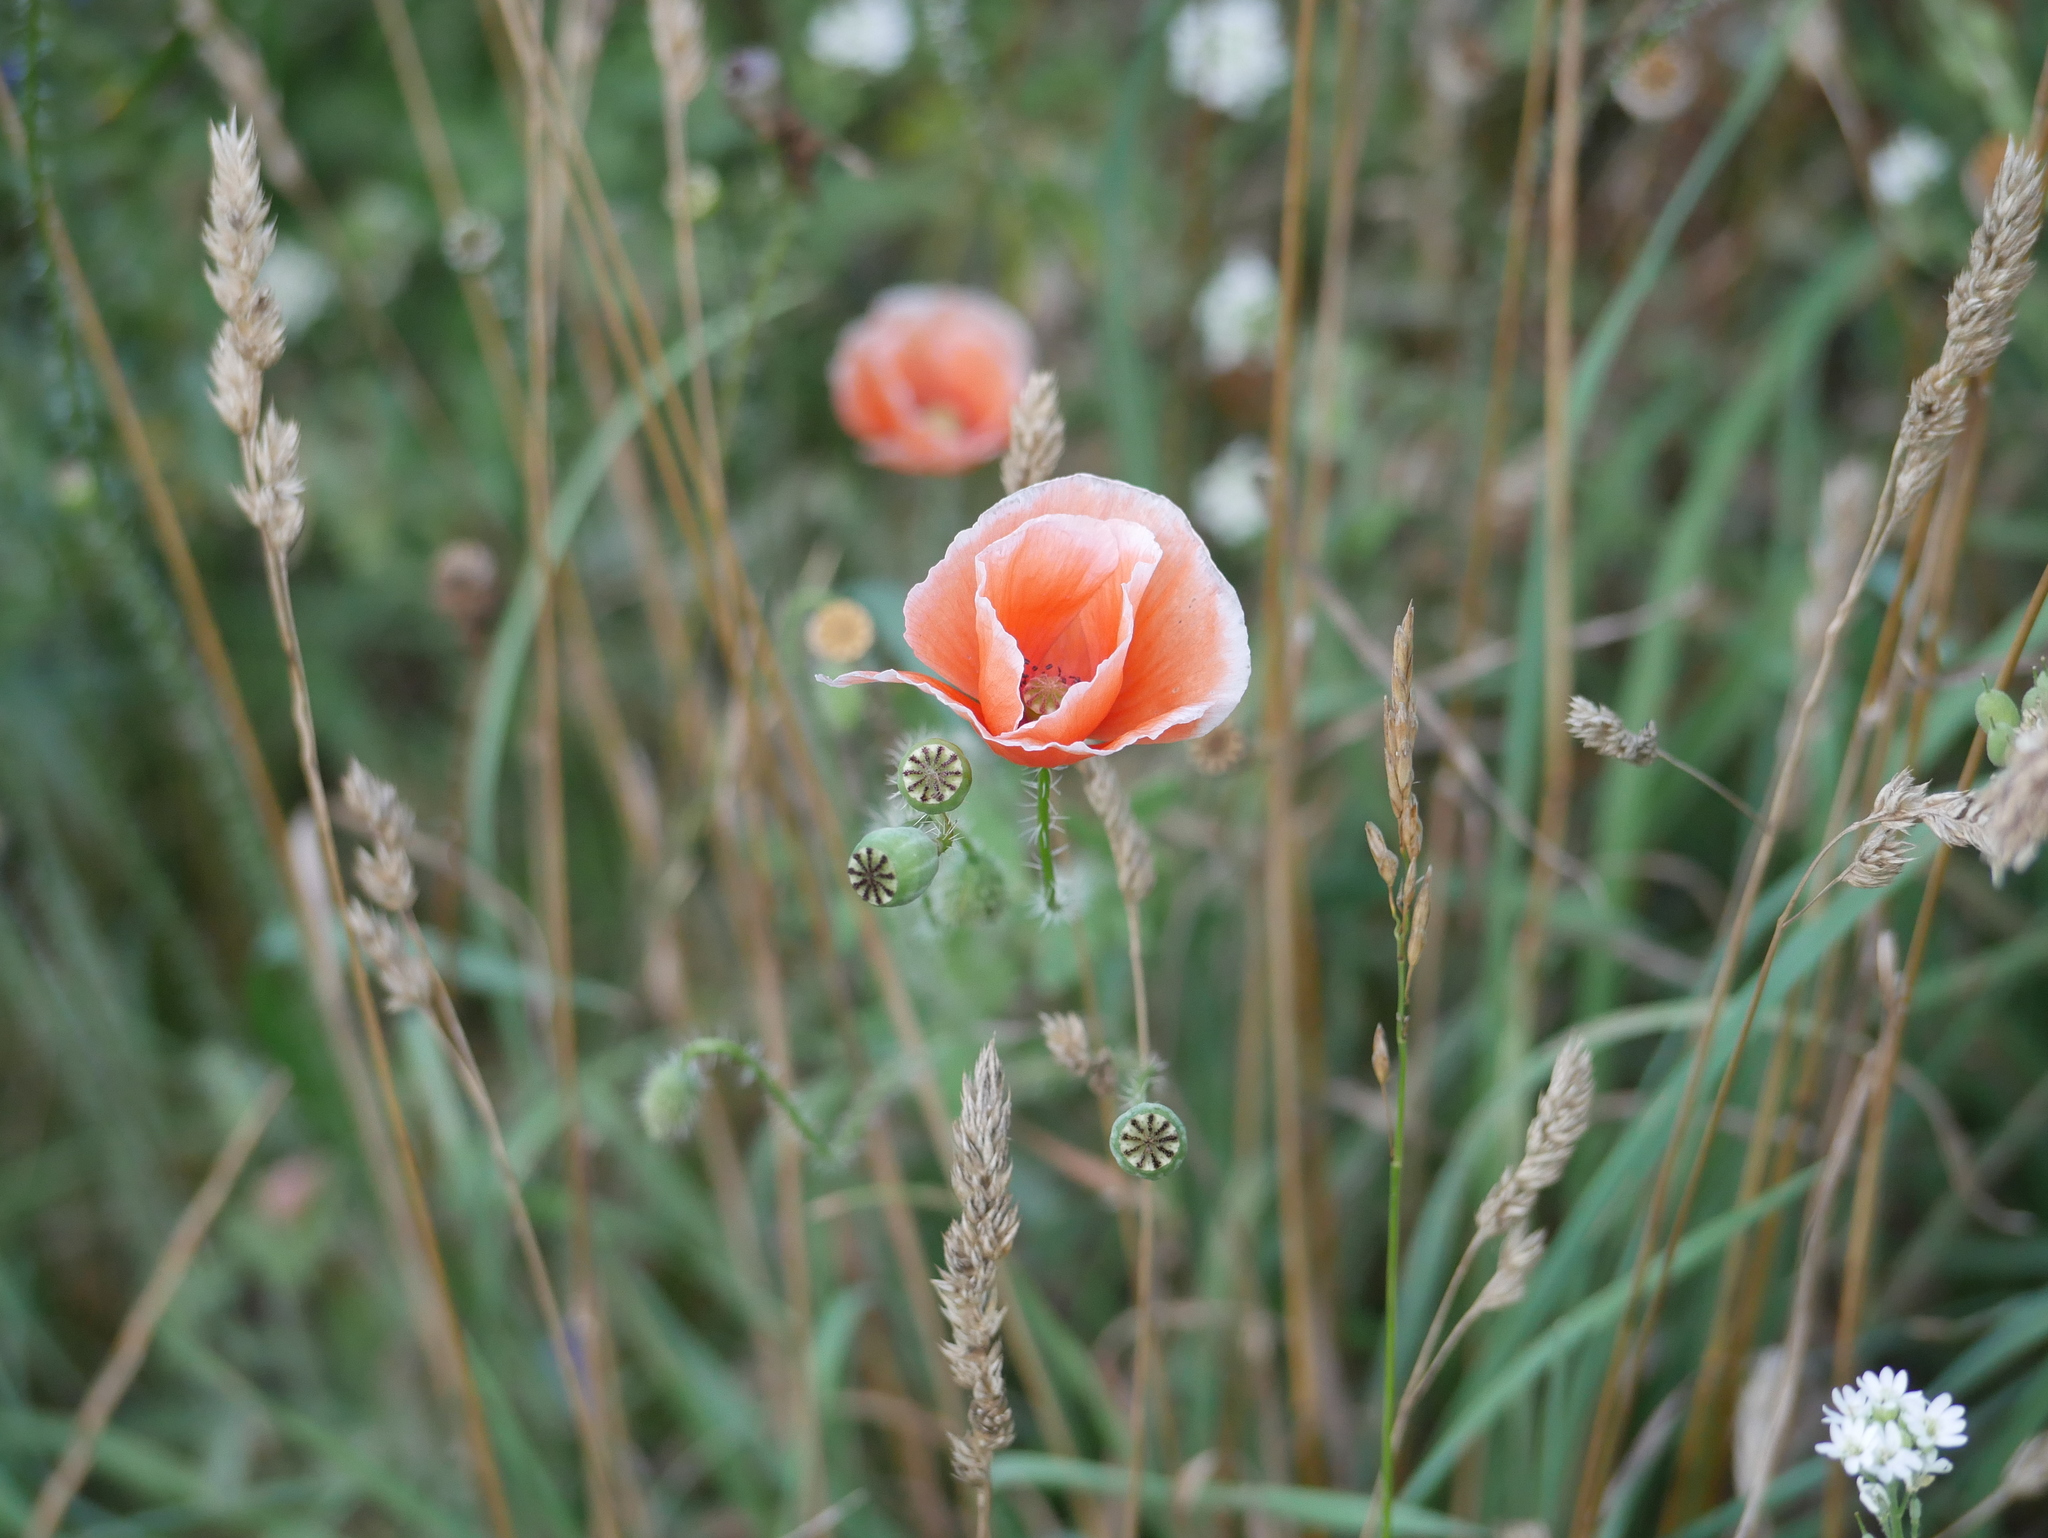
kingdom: Plantae
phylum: Tracheophyta
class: Magnoliopsida
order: Ranunculales
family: Papaveraceae
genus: Papaver
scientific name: Papaver rhoeas
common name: Corn poppy
